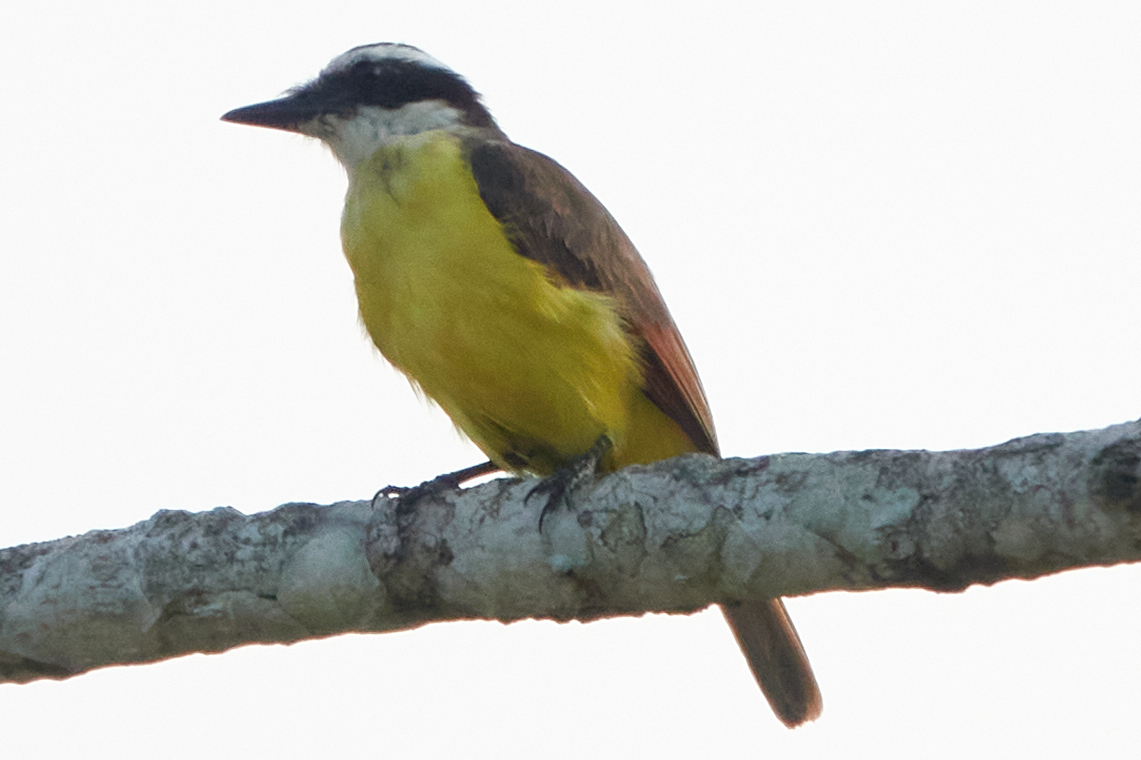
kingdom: Animalia
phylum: Chordata
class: Aves
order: Passeriformes
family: Tyrannidae
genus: Pitangus
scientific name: Pitangus sulphuratus
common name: Great kiskadee
